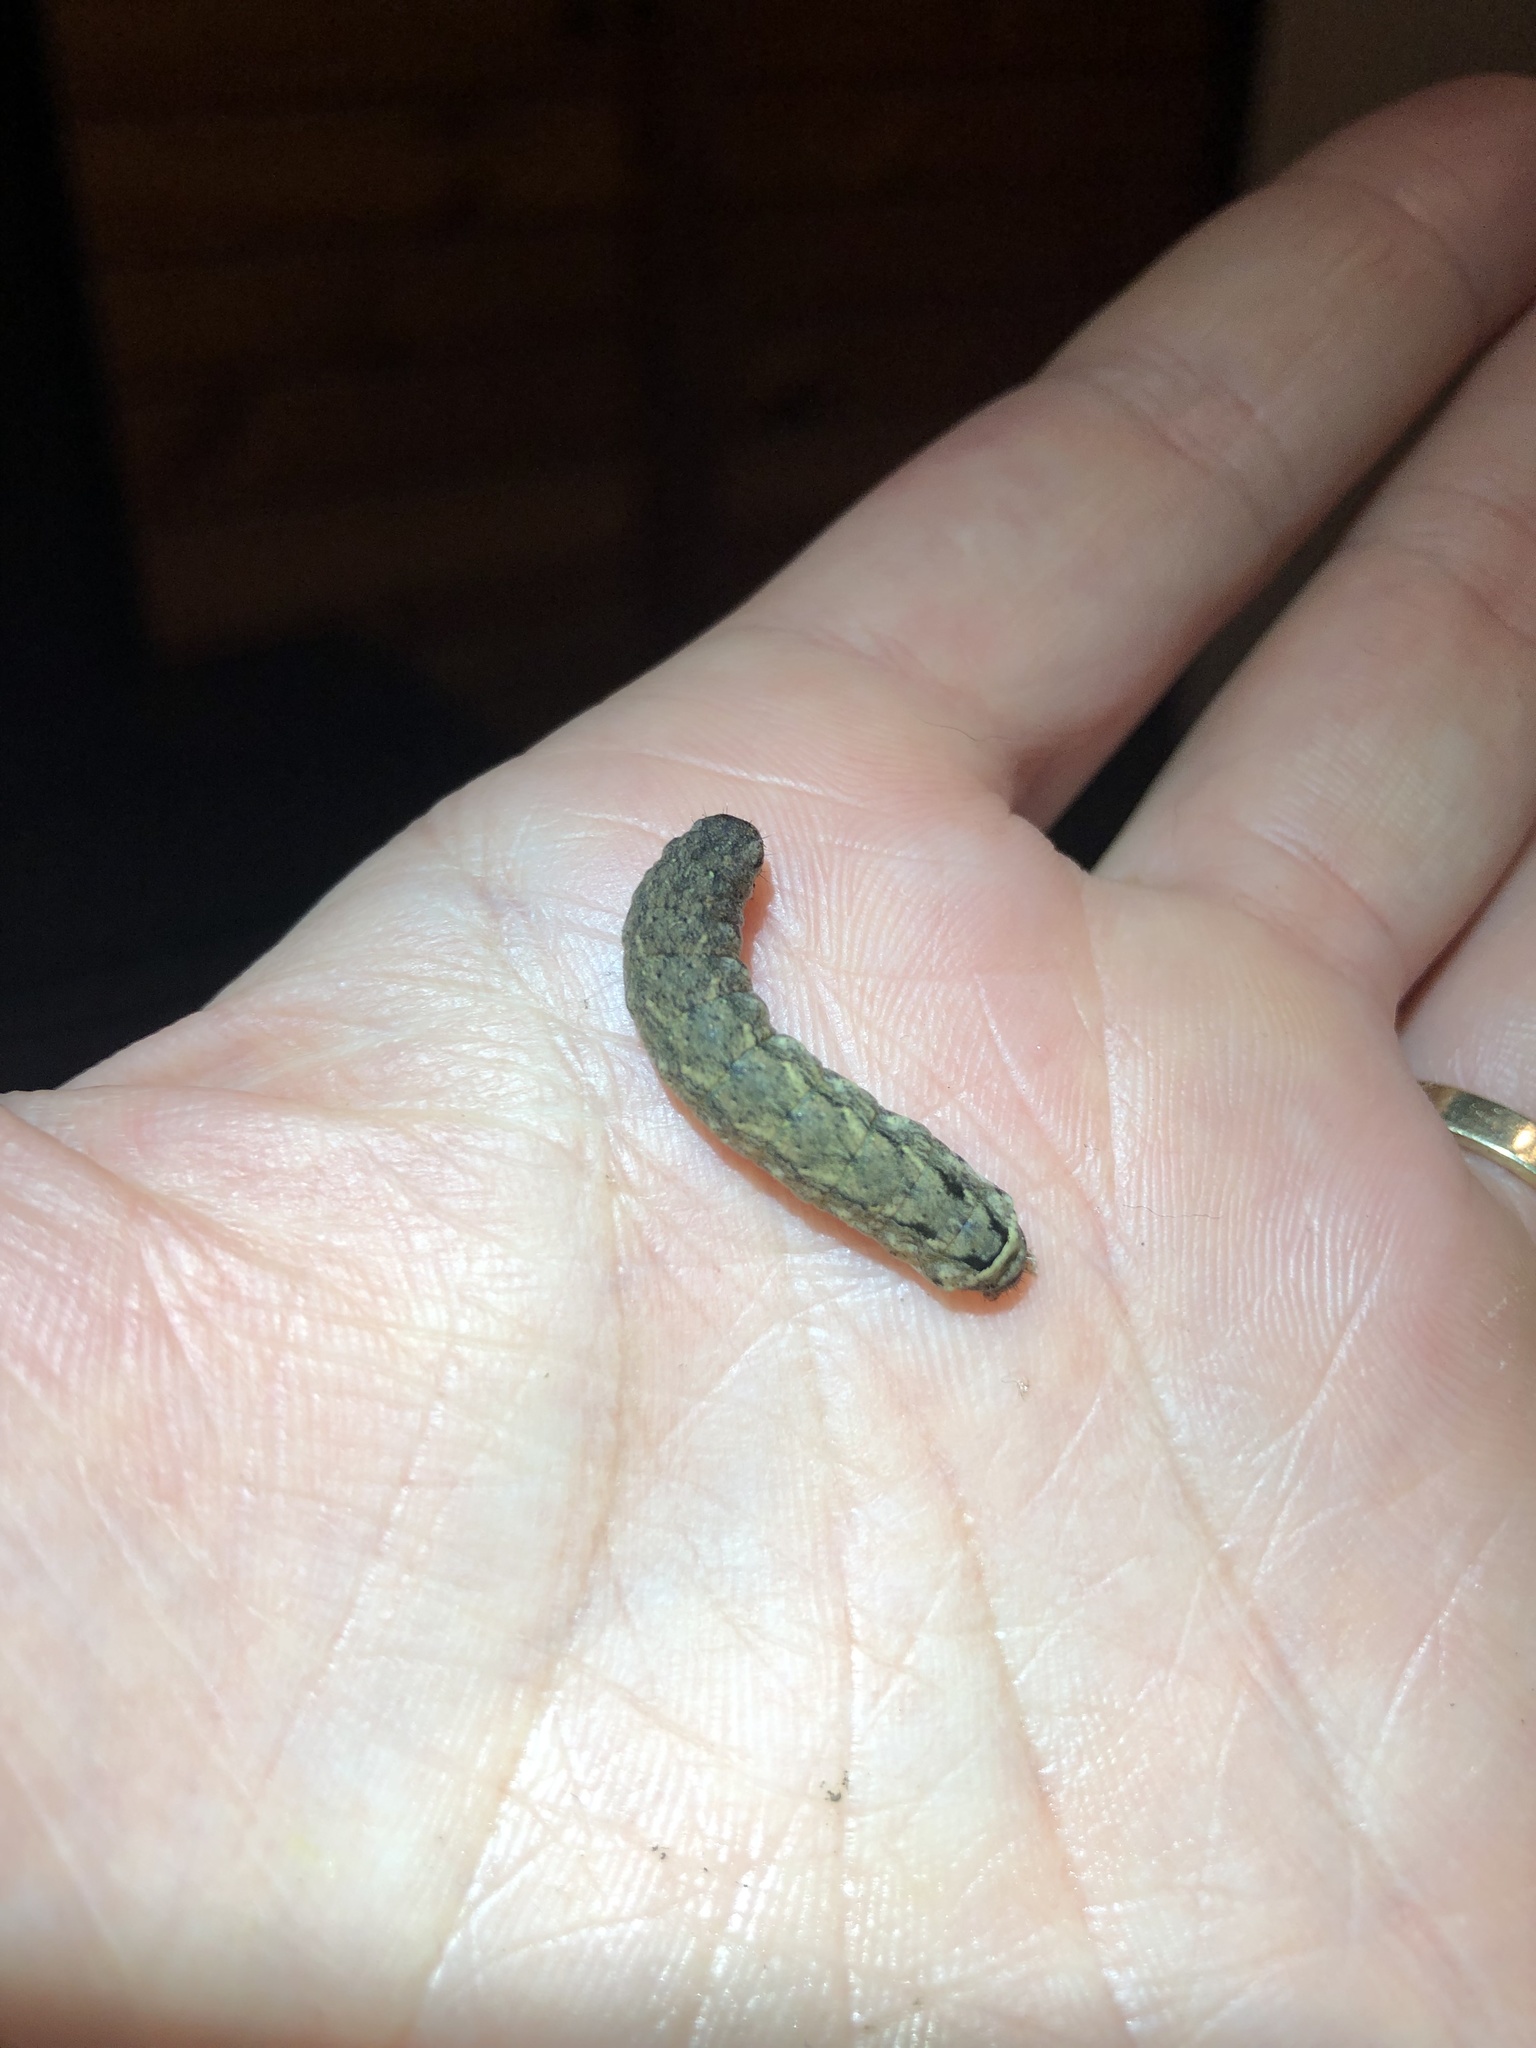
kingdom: Animalia
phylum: Arthropoda
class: Insecta
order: Lepidoptera
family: Noctuidae
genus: Spodoptera
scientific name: Spodoptera litura
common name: Asian cotton leafworm
